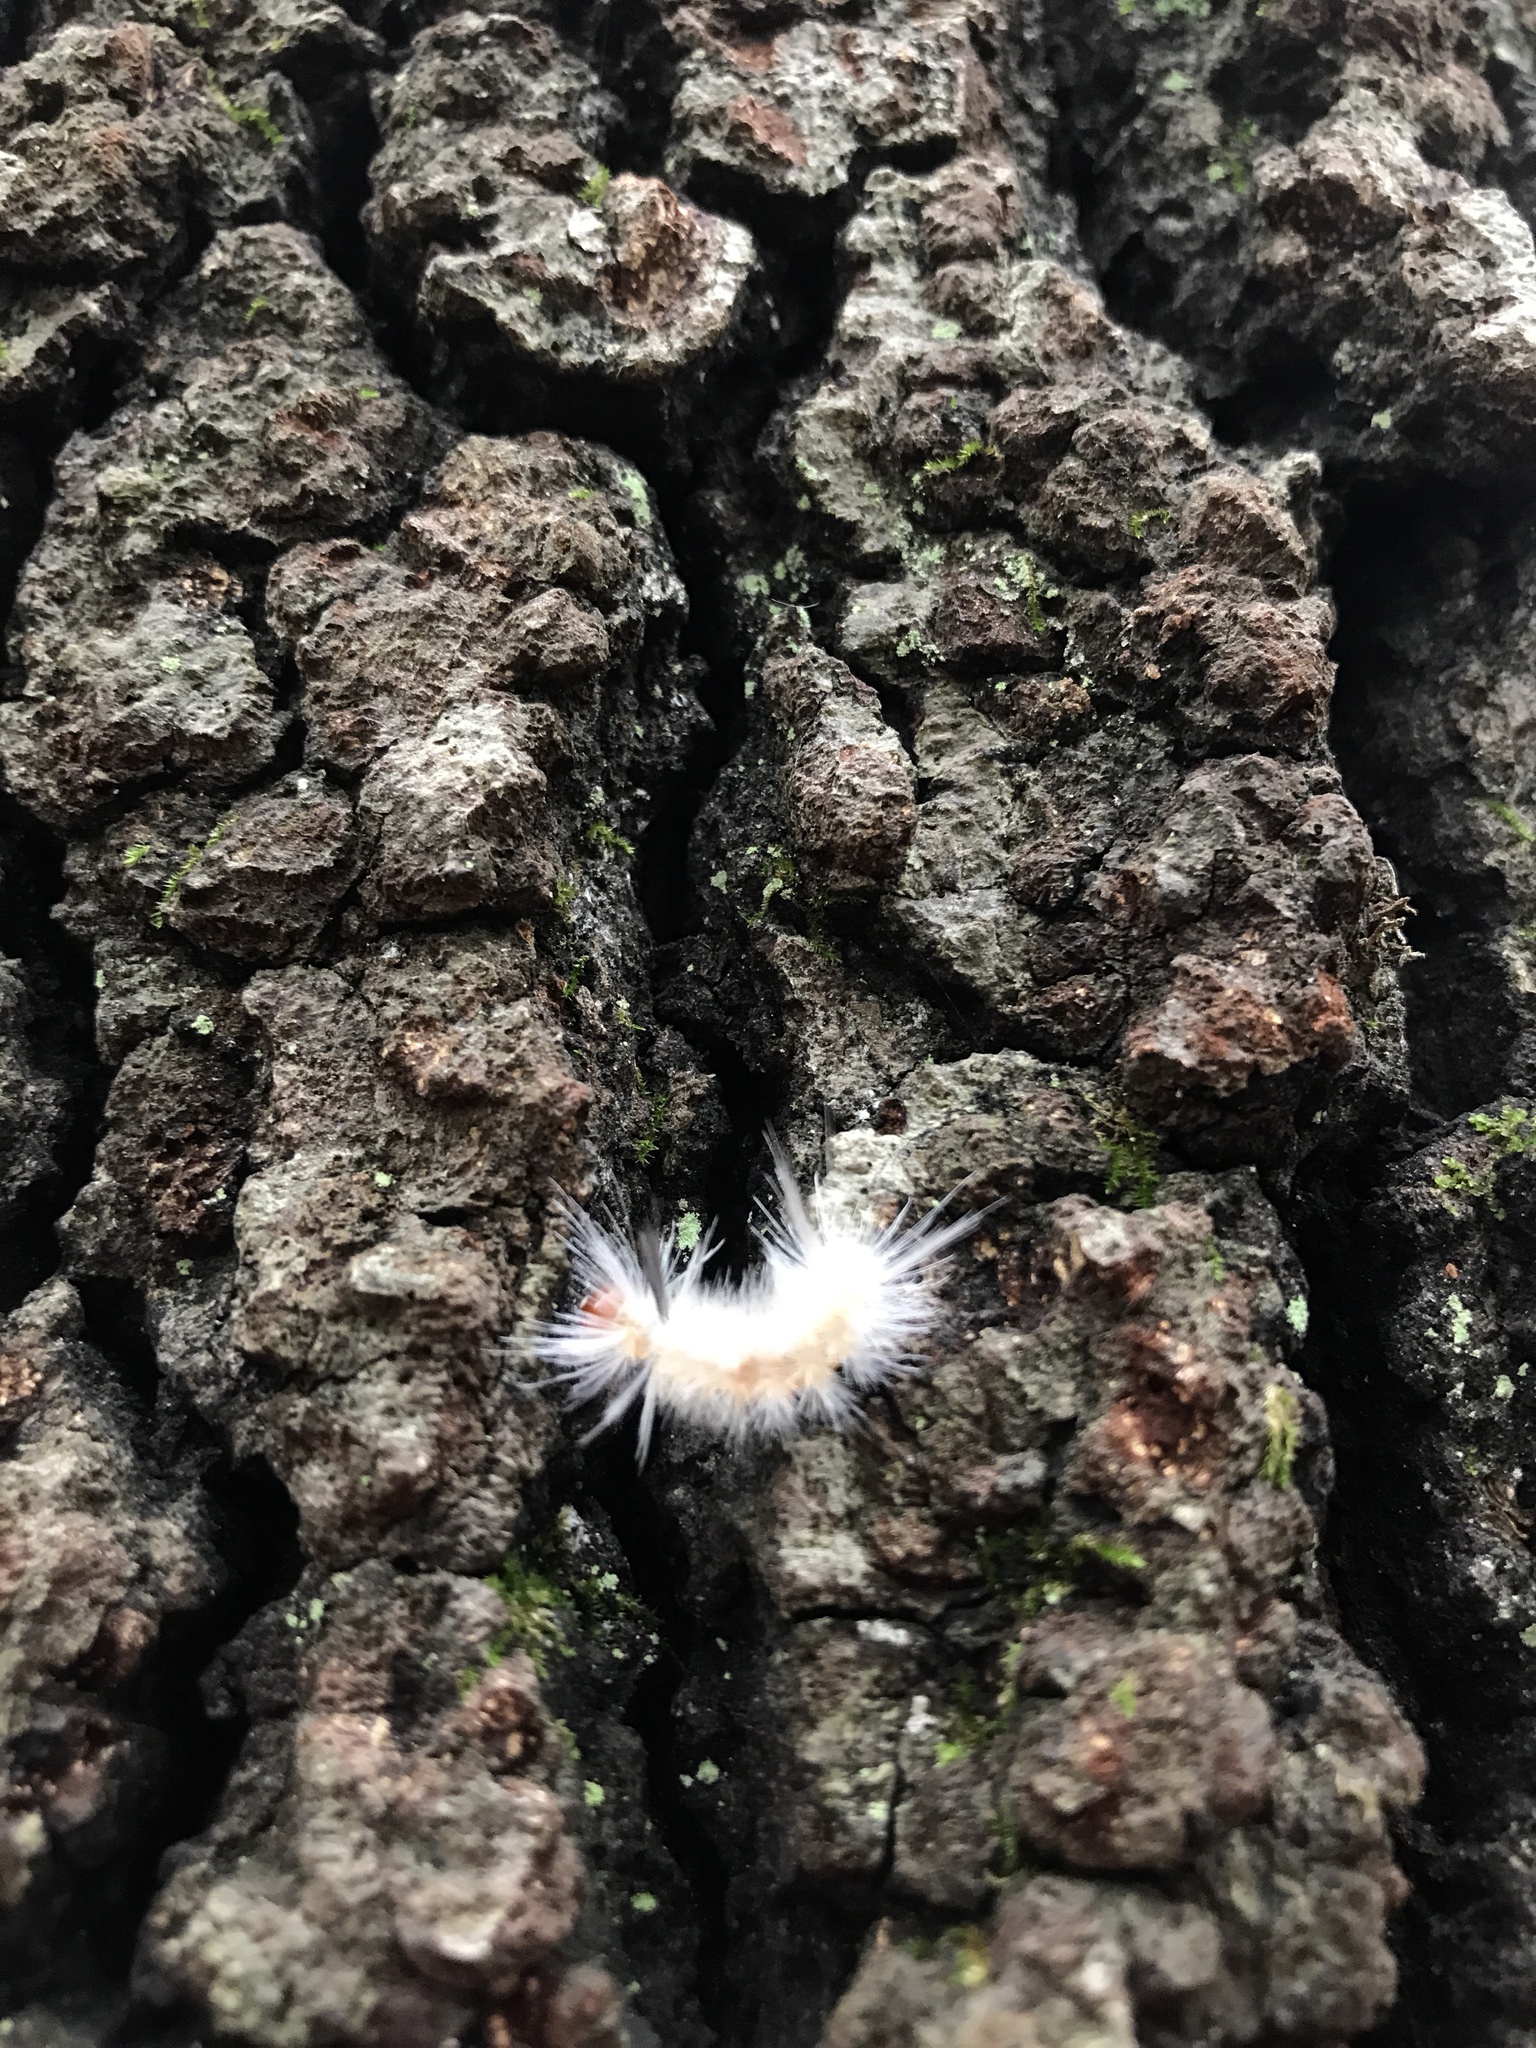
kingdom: Animalia
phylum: Arthropoda
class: Insecta
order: Lepidoptera
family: Erebidae
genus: Halysidota
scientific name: Halysidota tessellaris
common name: Banded tussock moth
